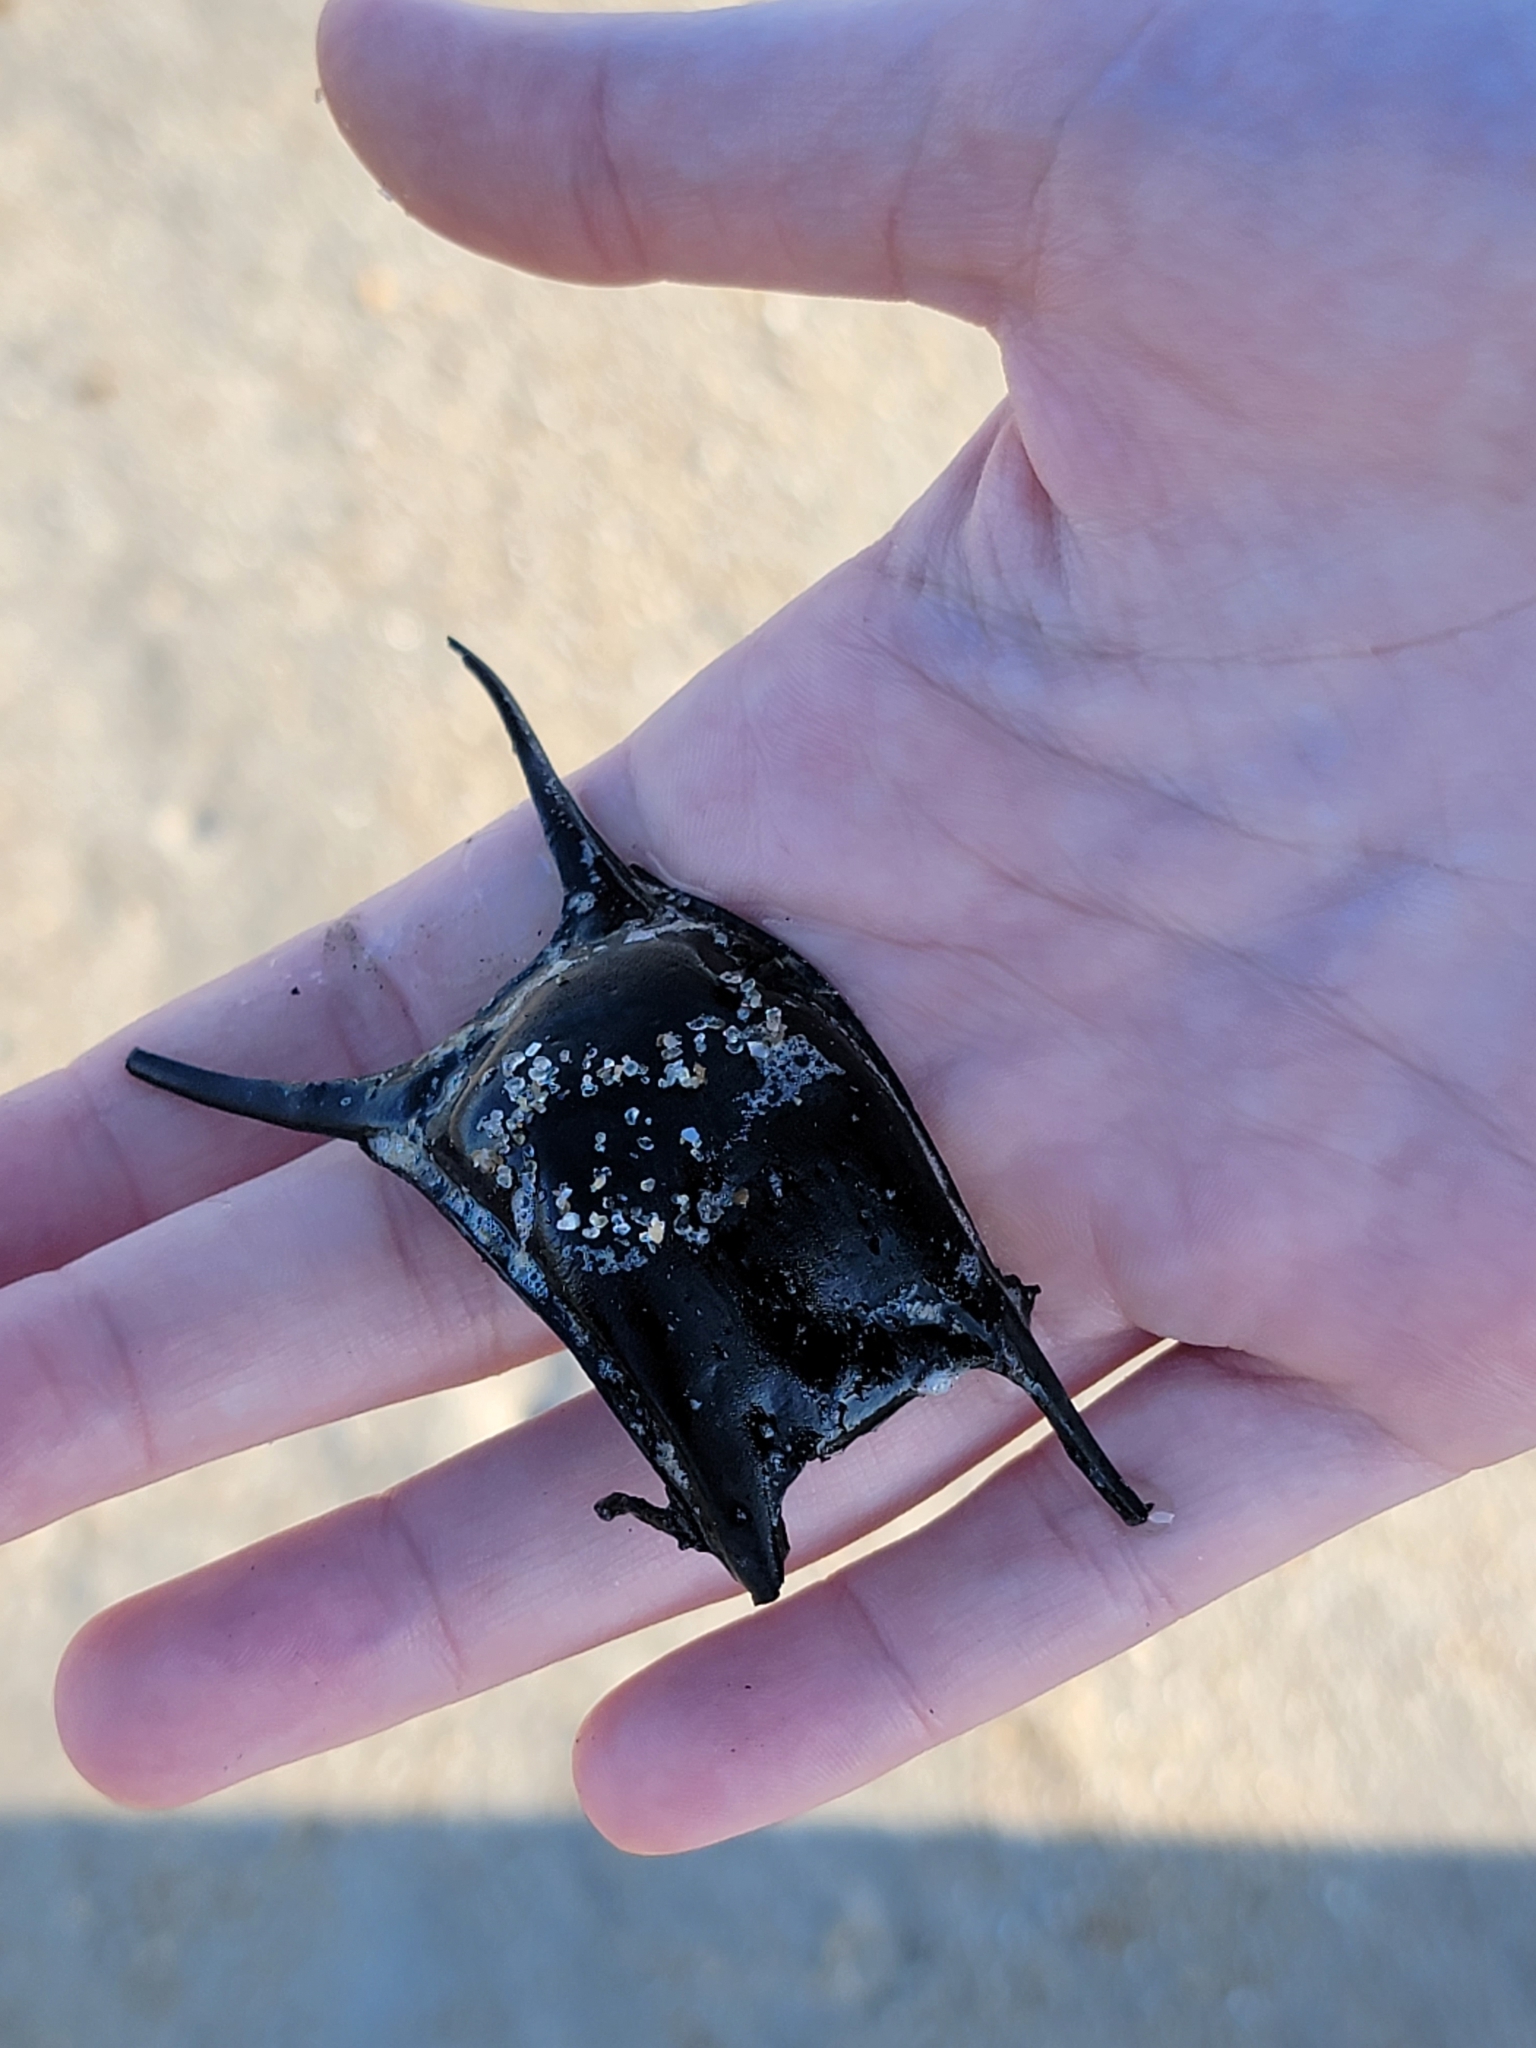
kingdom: Animalia
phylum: Chordata
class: Elasmobranchii
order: Rajiformes
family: Rajidae
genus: Leucoraja
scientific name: Leucoraja erinacea
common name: Little skate
